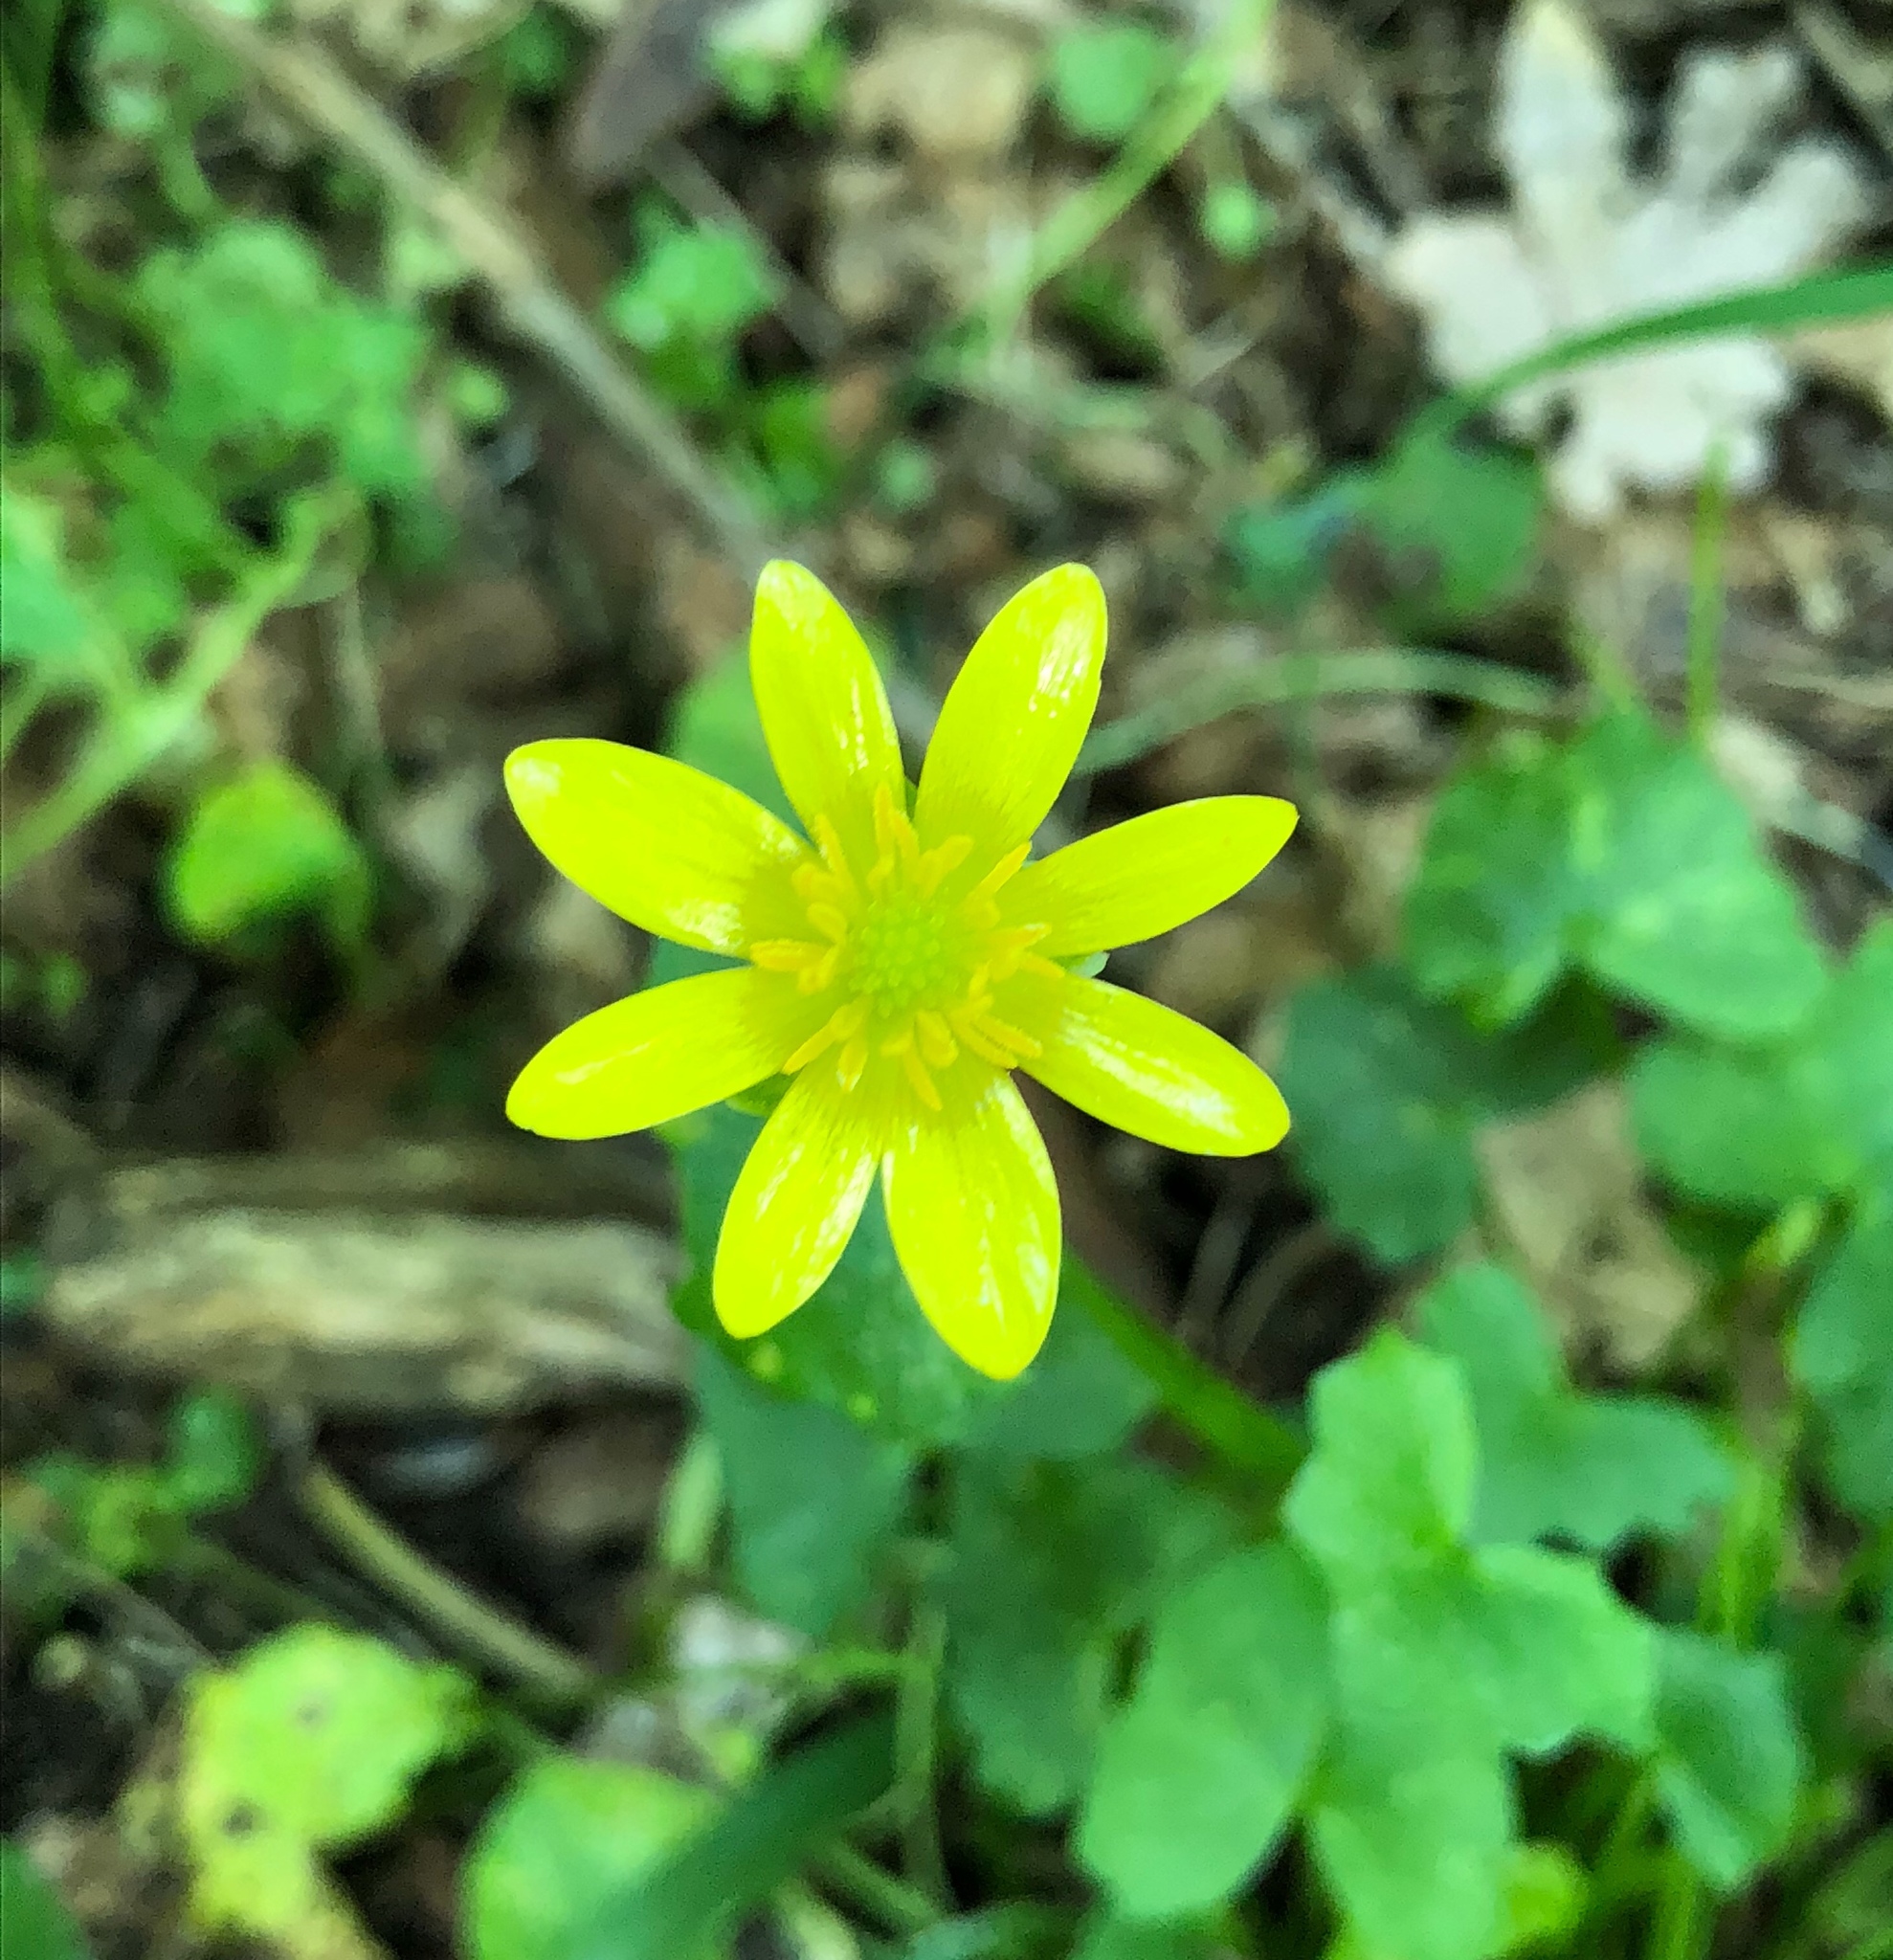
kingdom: Plantae
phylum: Tracheophyta
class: Magnoliopsida
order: Ranunculales
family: Ranunculaceae
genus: Ficaria
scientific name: Ficaria verna
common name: Lesser celandine
